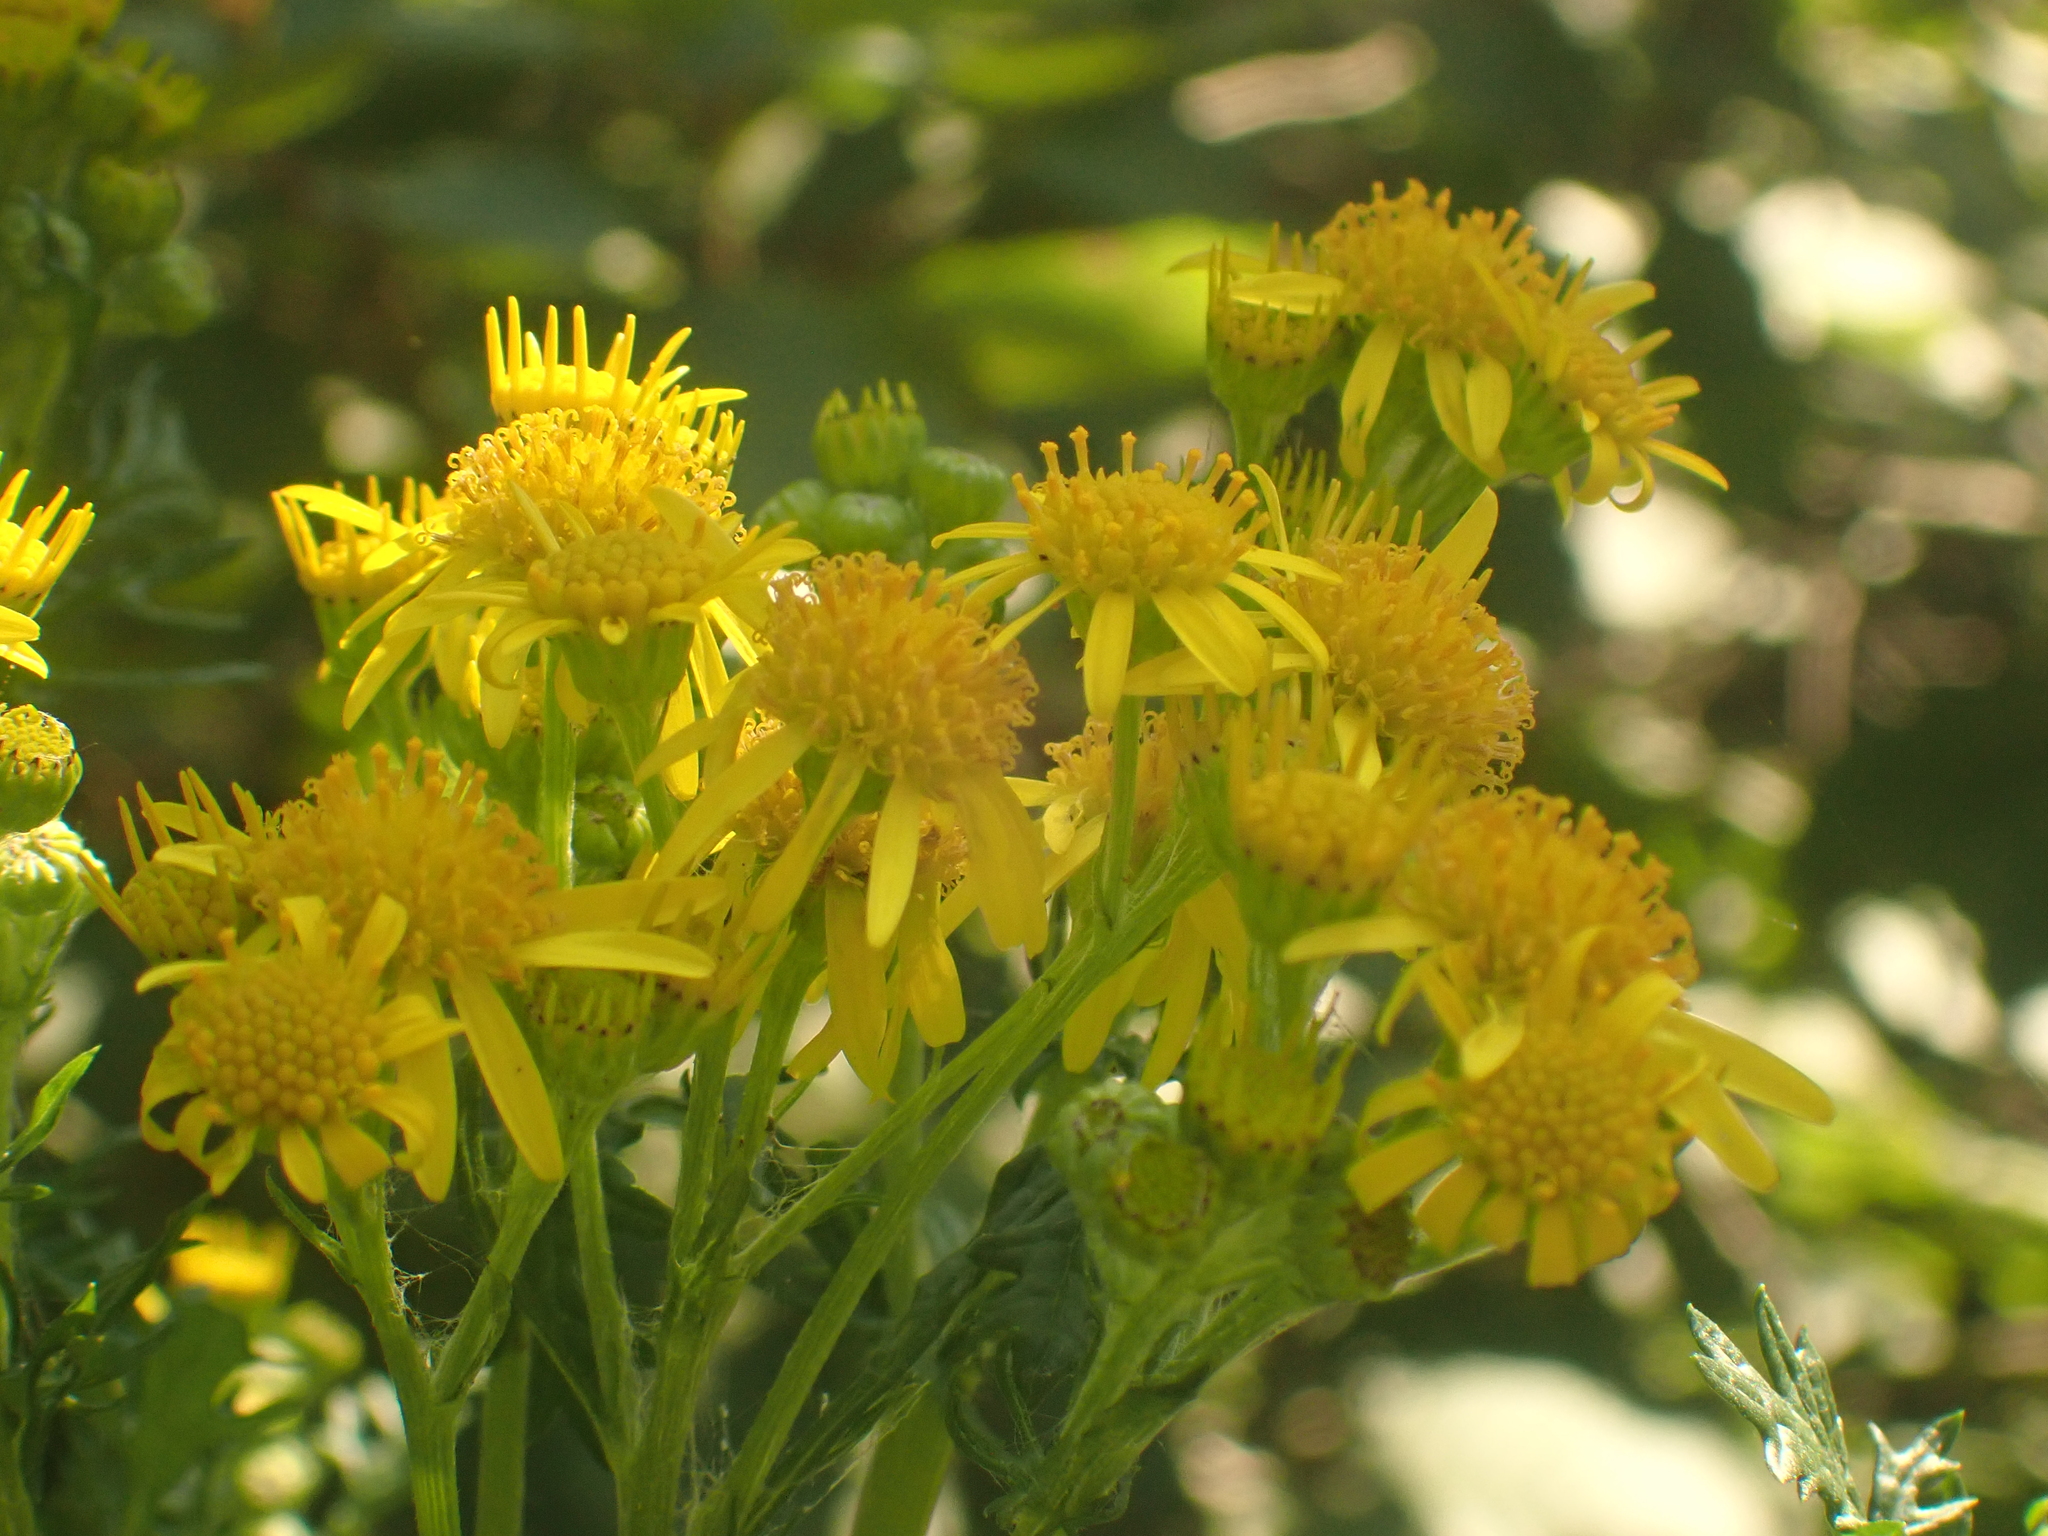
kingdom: Plantae
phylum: Tracheophyta
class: Magnoliopsida
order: Asterales
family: Asteraceae
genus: Jacobaea
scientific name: Jacobaea vulgaris
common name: Stinking willie
